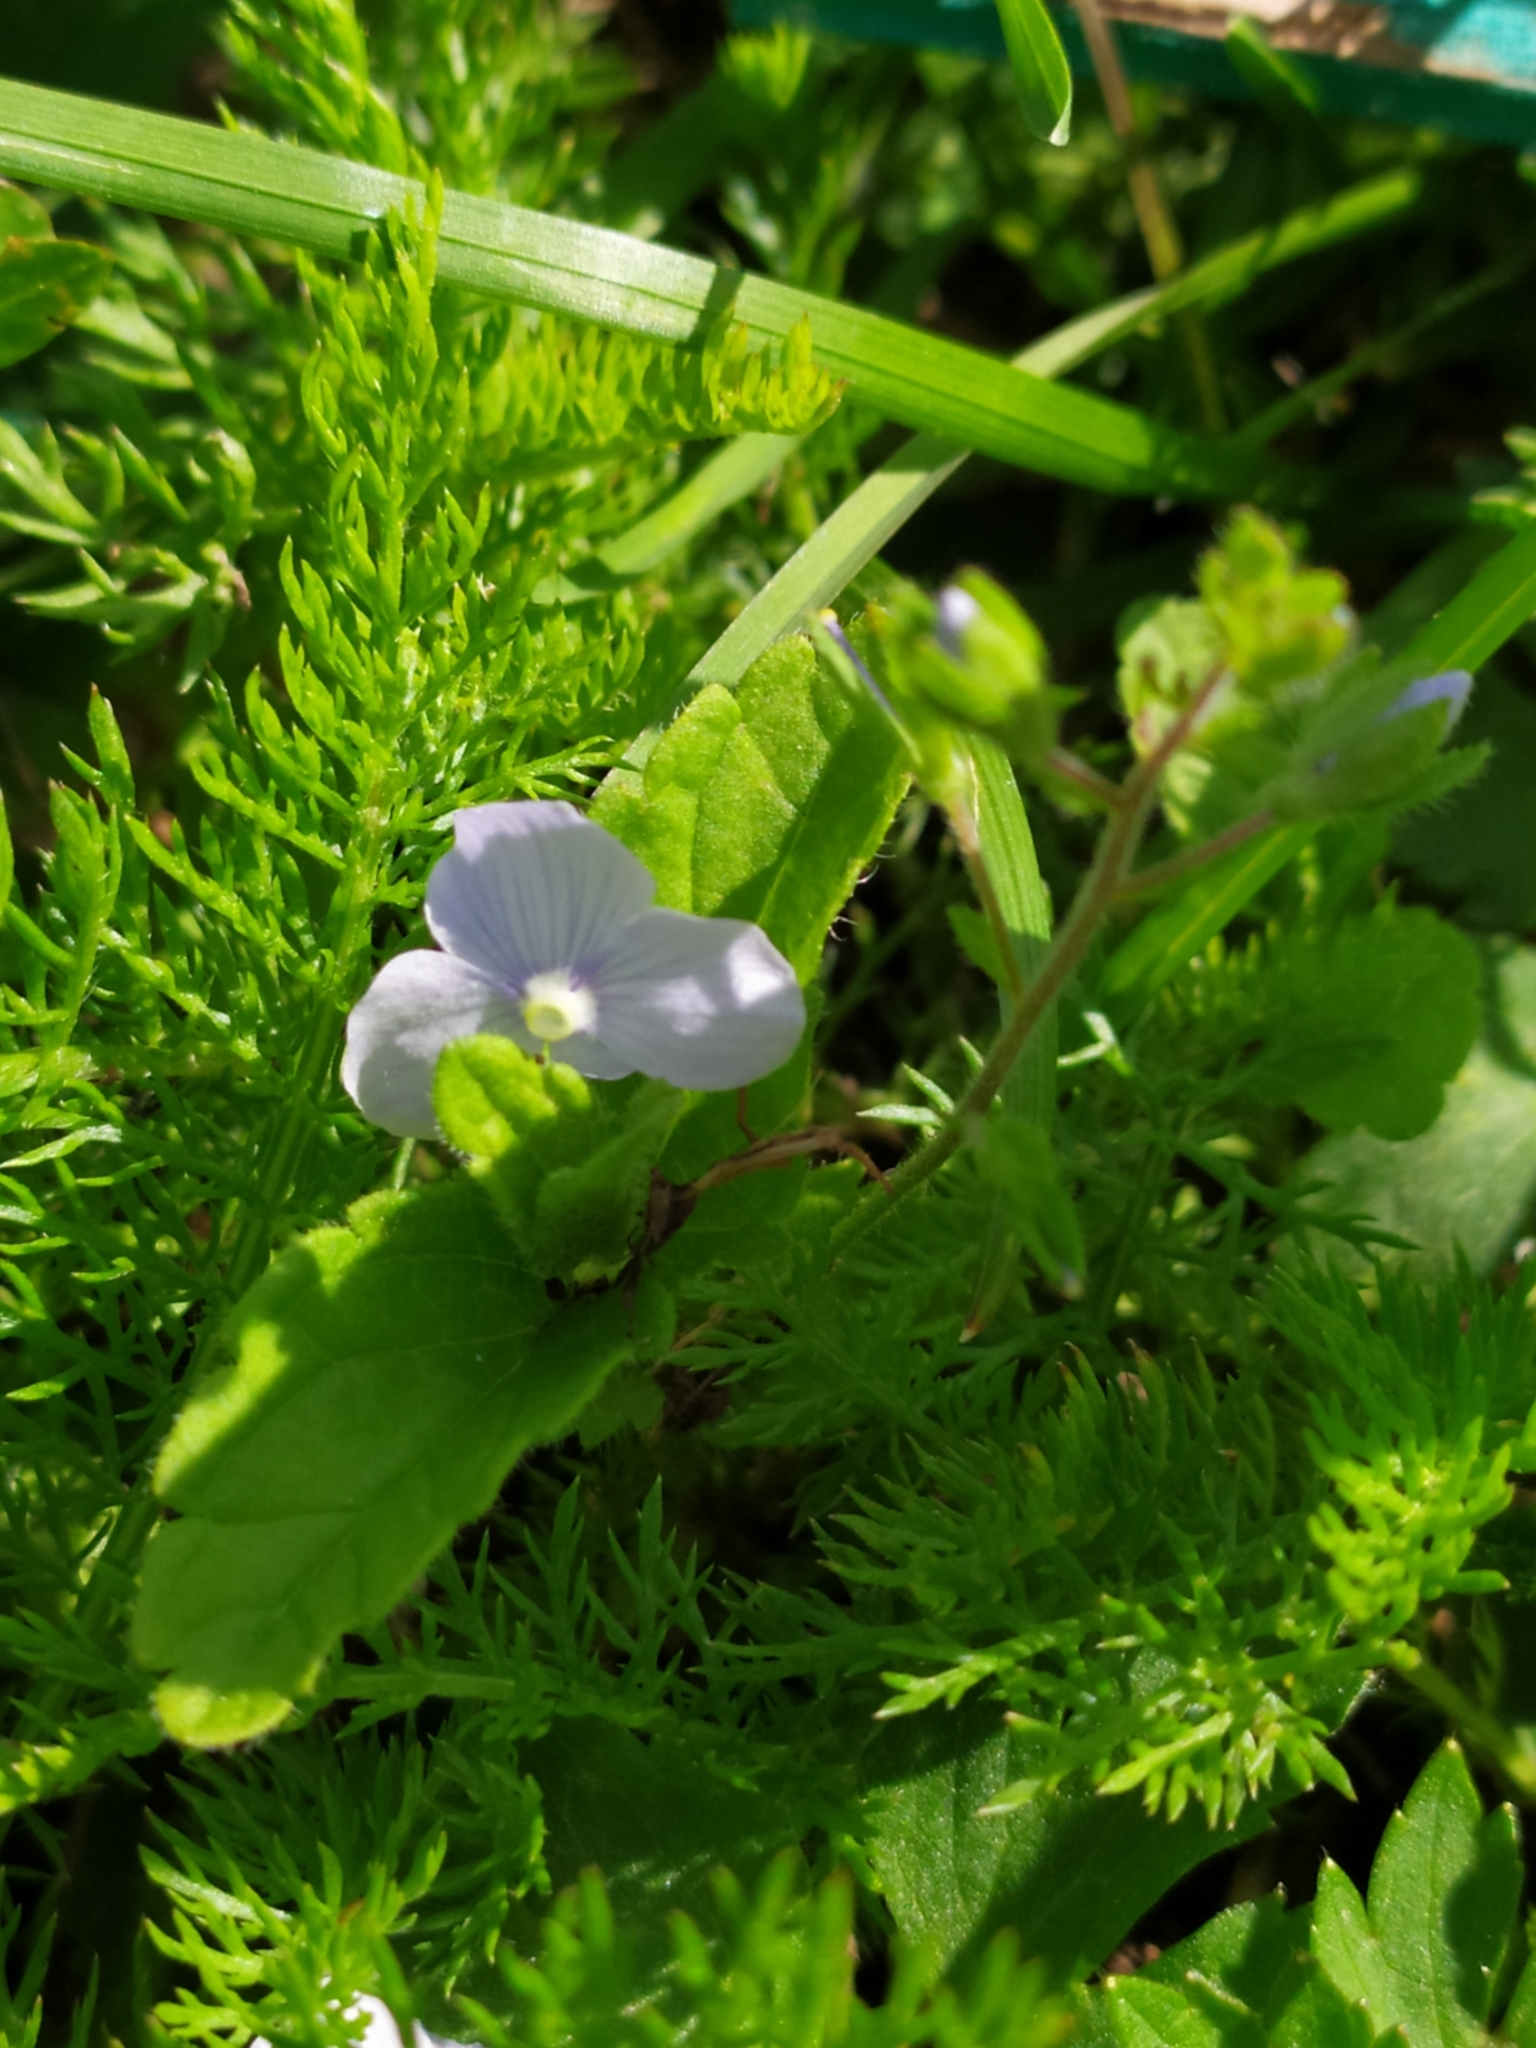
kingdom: Plantae
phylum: Tracheophyta
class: Magnoliopsida
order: Lamiales
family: Plantaginaceae
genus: Veronica
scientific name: Veronica filiformis
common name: Slender speedwell
